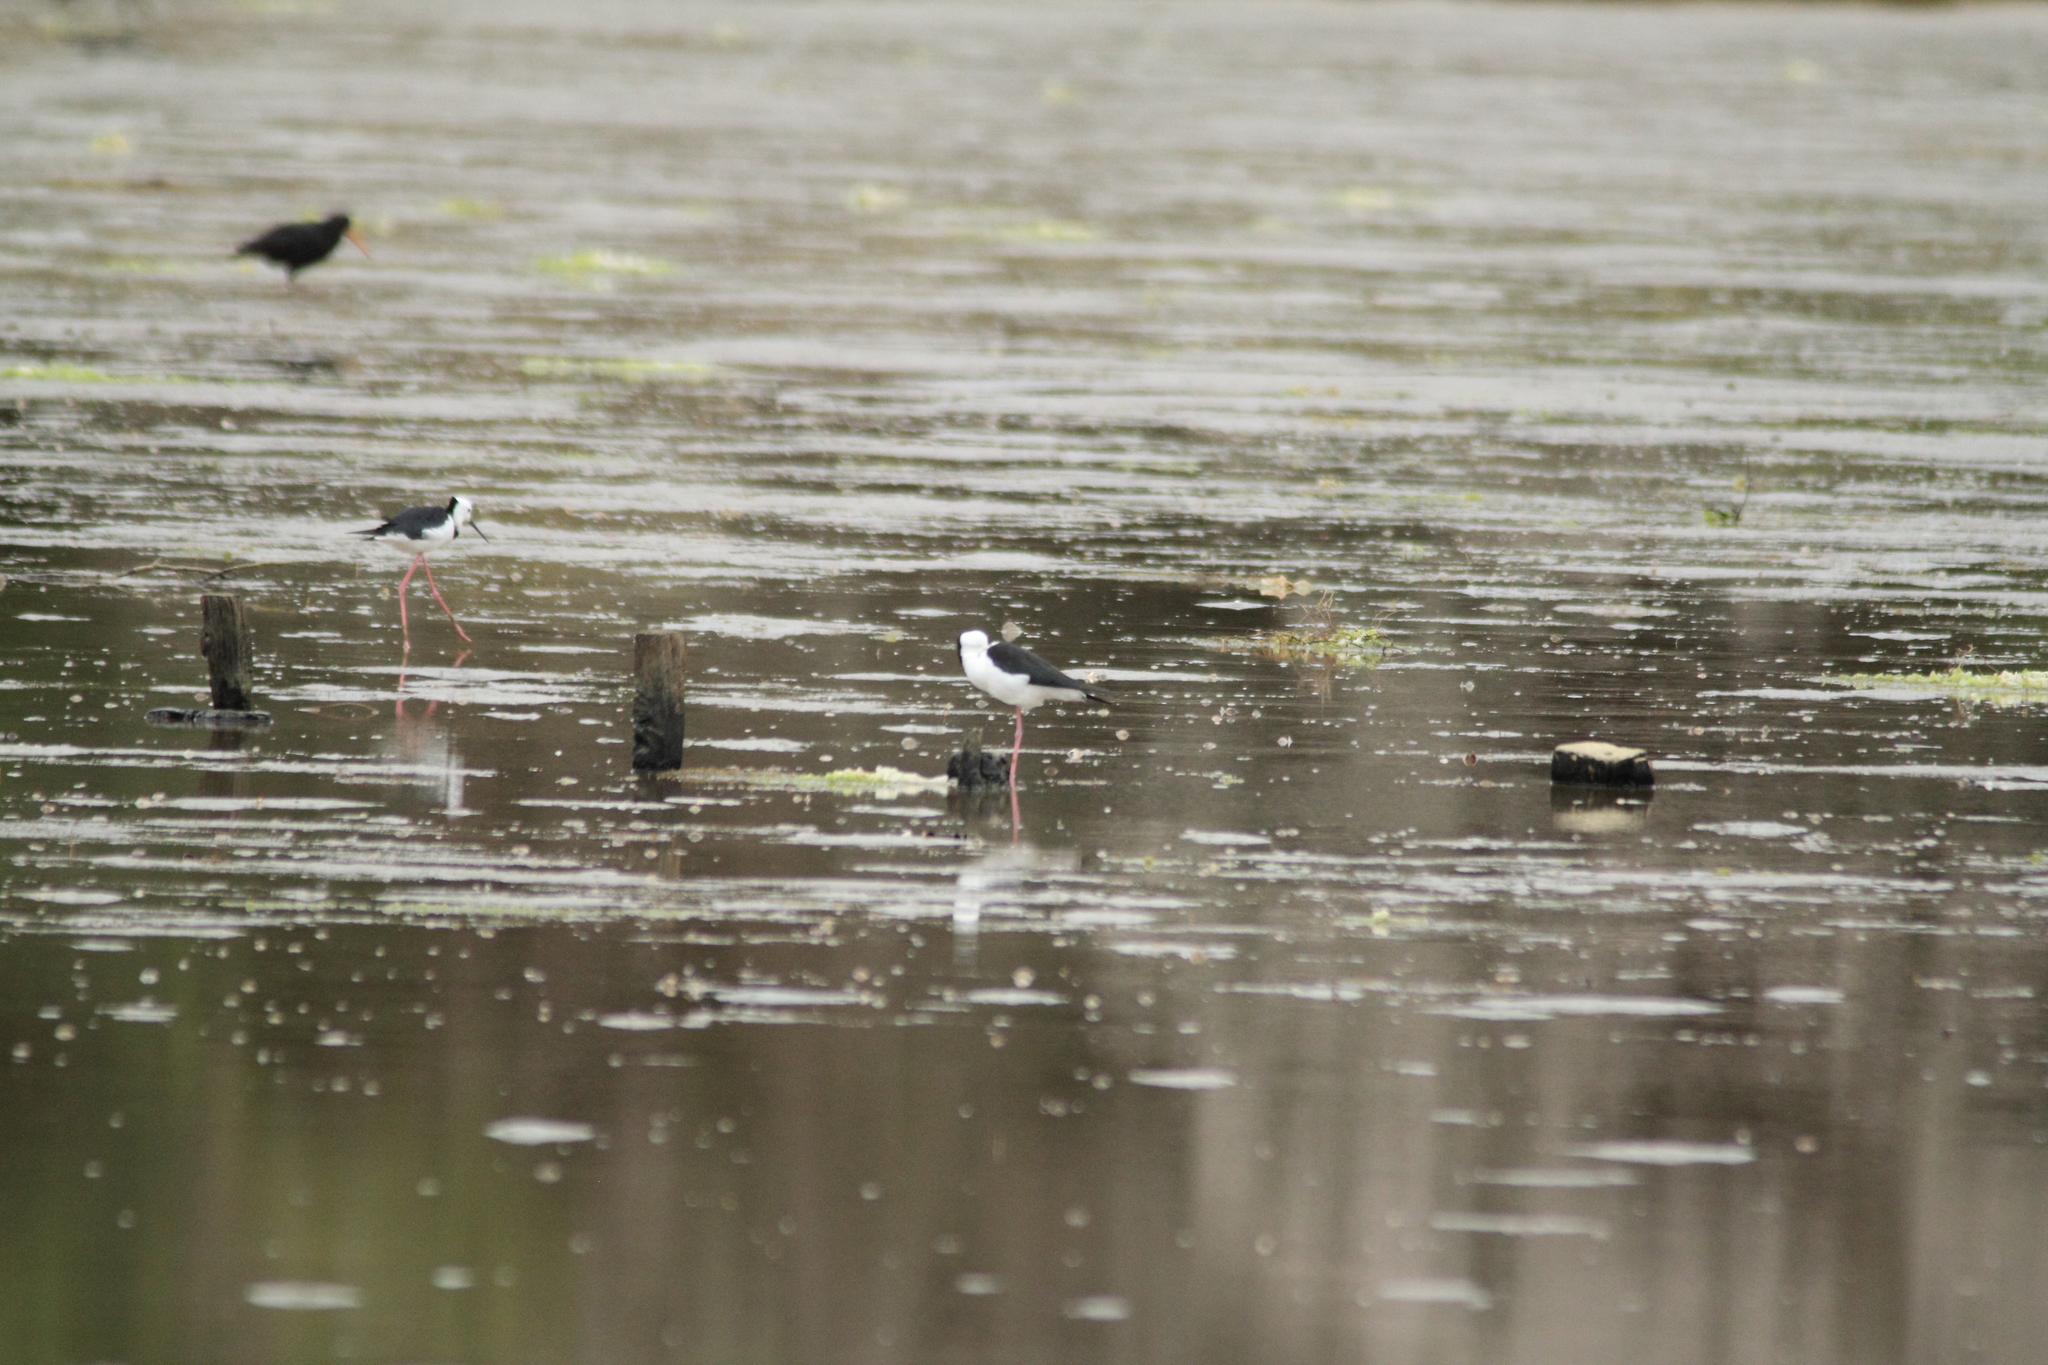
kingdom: Animalia
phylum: Chordata
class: Aves
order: Charadriiformes
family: Recurvirostridae
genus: Himantopus
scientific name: Himantopus leucocephalus
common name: White-headed stilt
